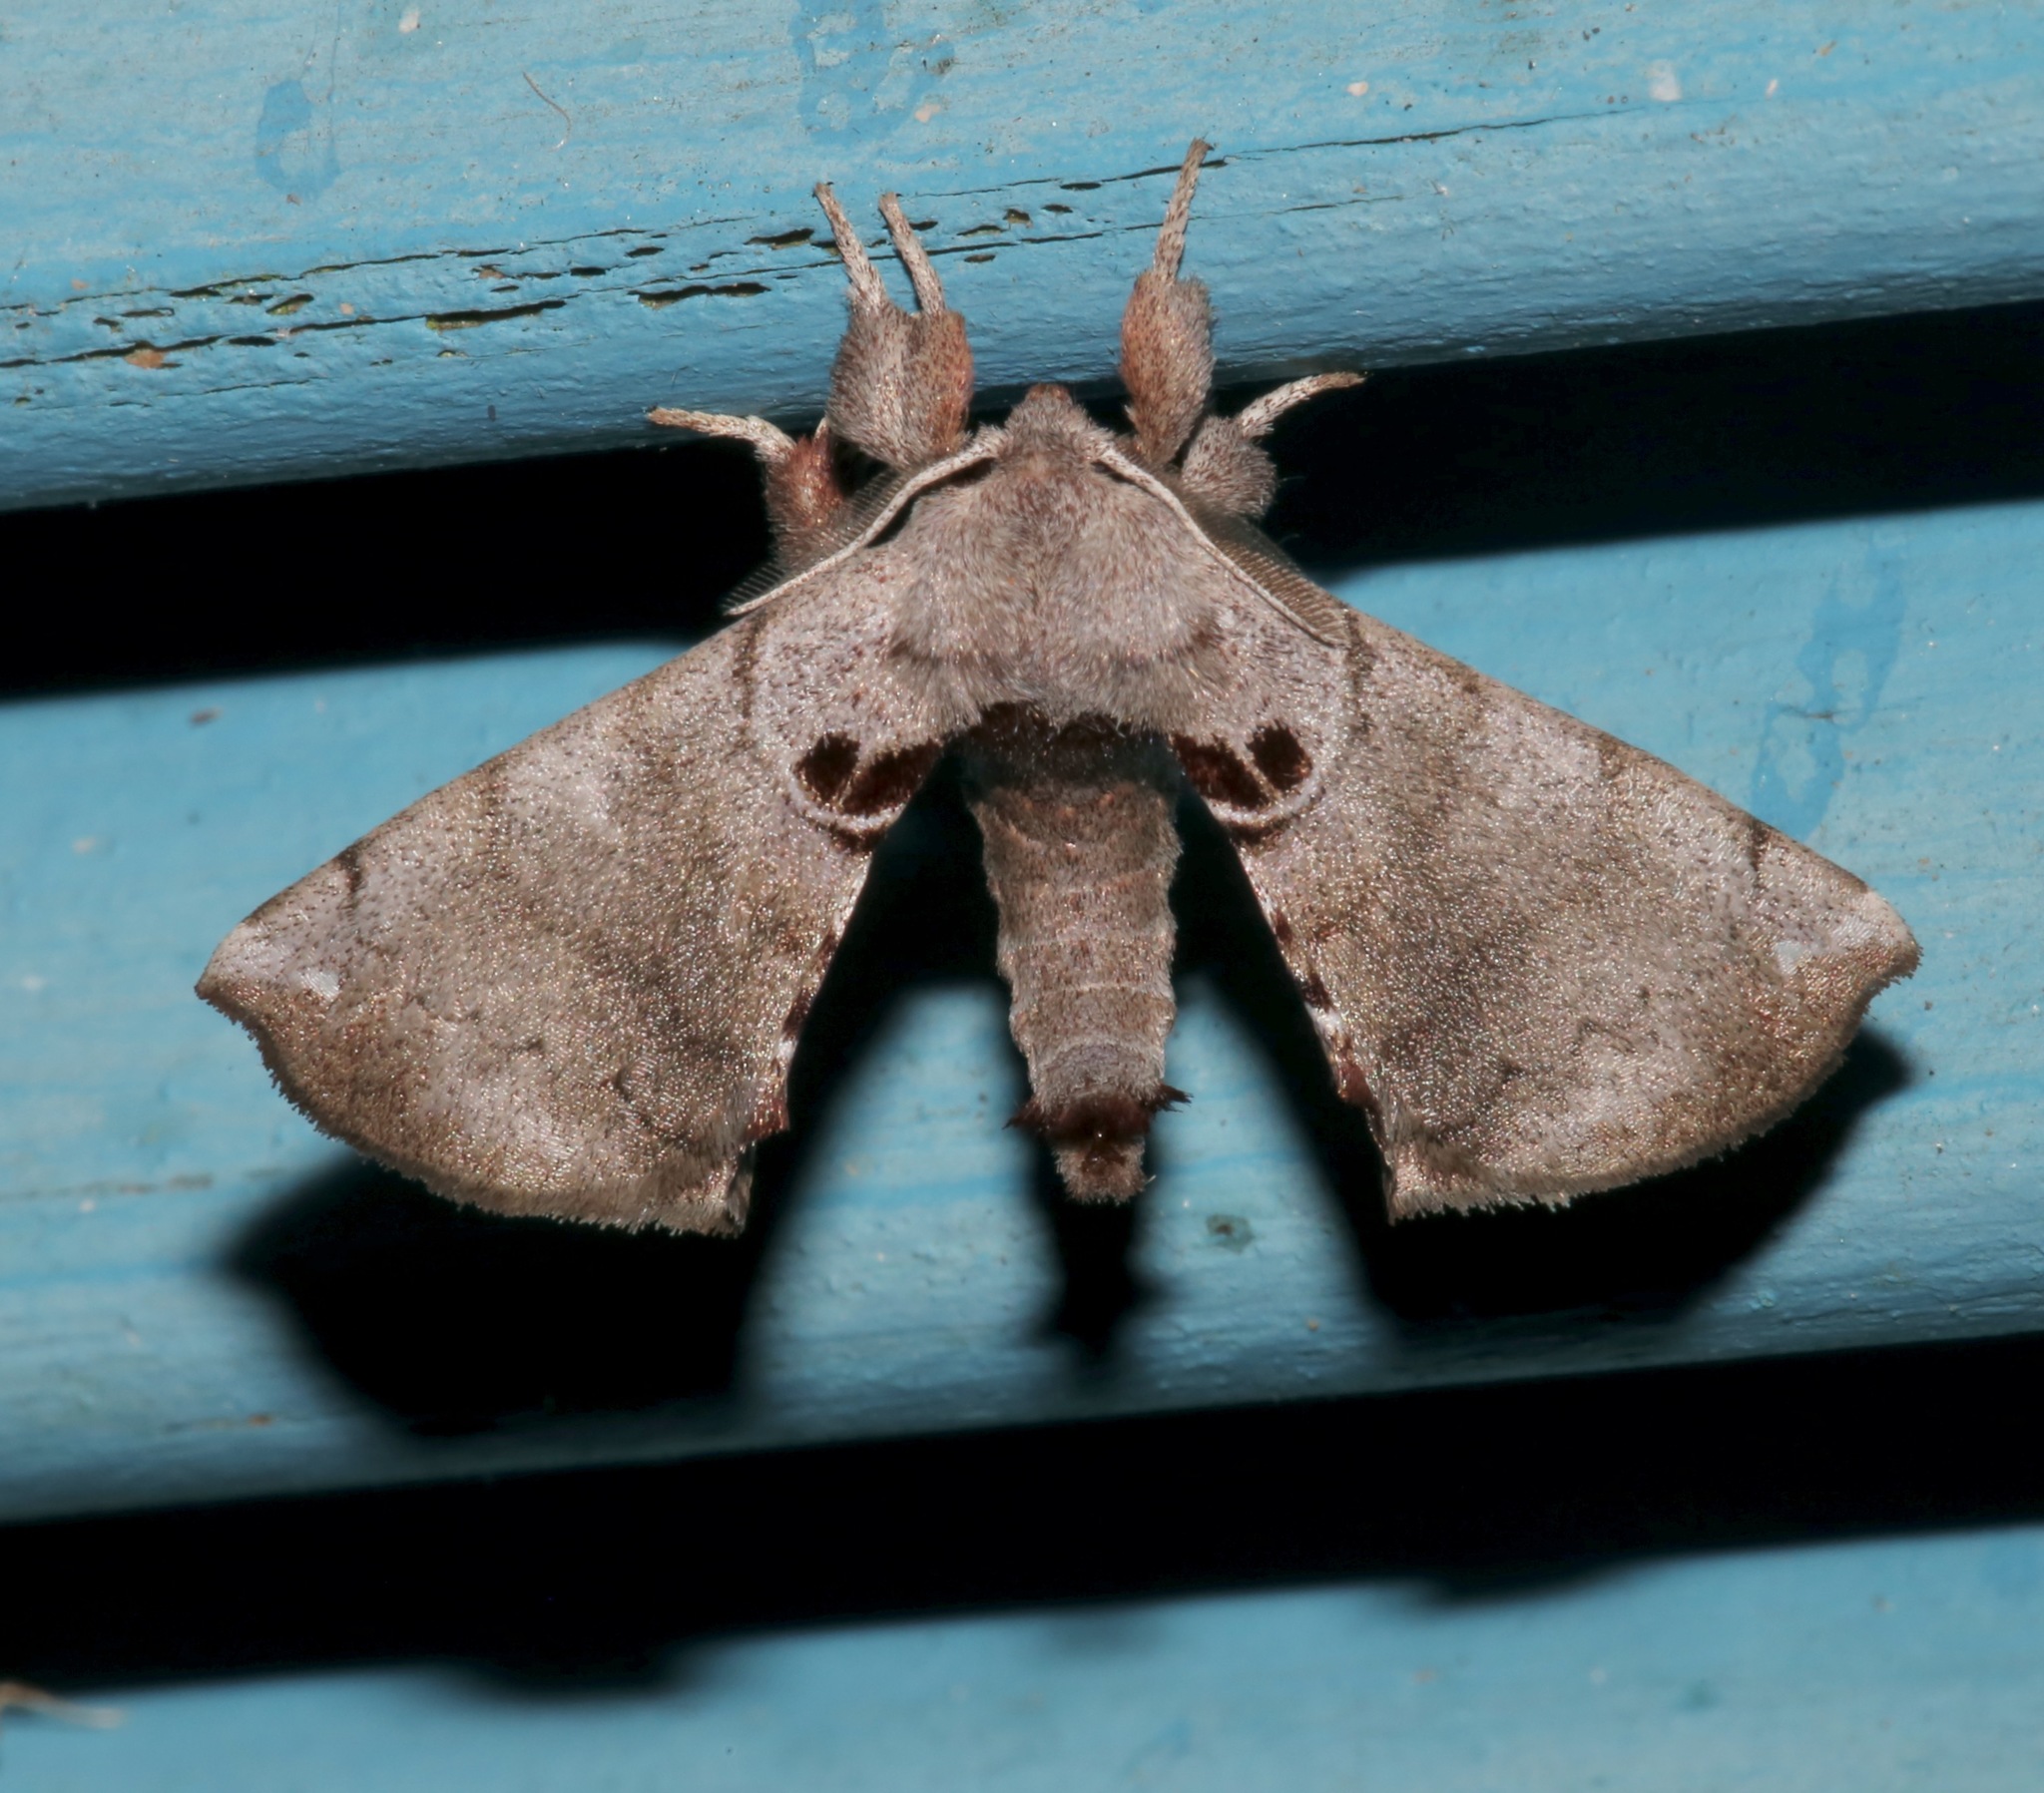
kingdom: Animalia
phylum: Arthropoda
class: Insecta
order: Lepidoptera
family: Apatelodidae
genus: Hygrochroa
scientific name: Hygrochroa Apatelodes torrefacta
